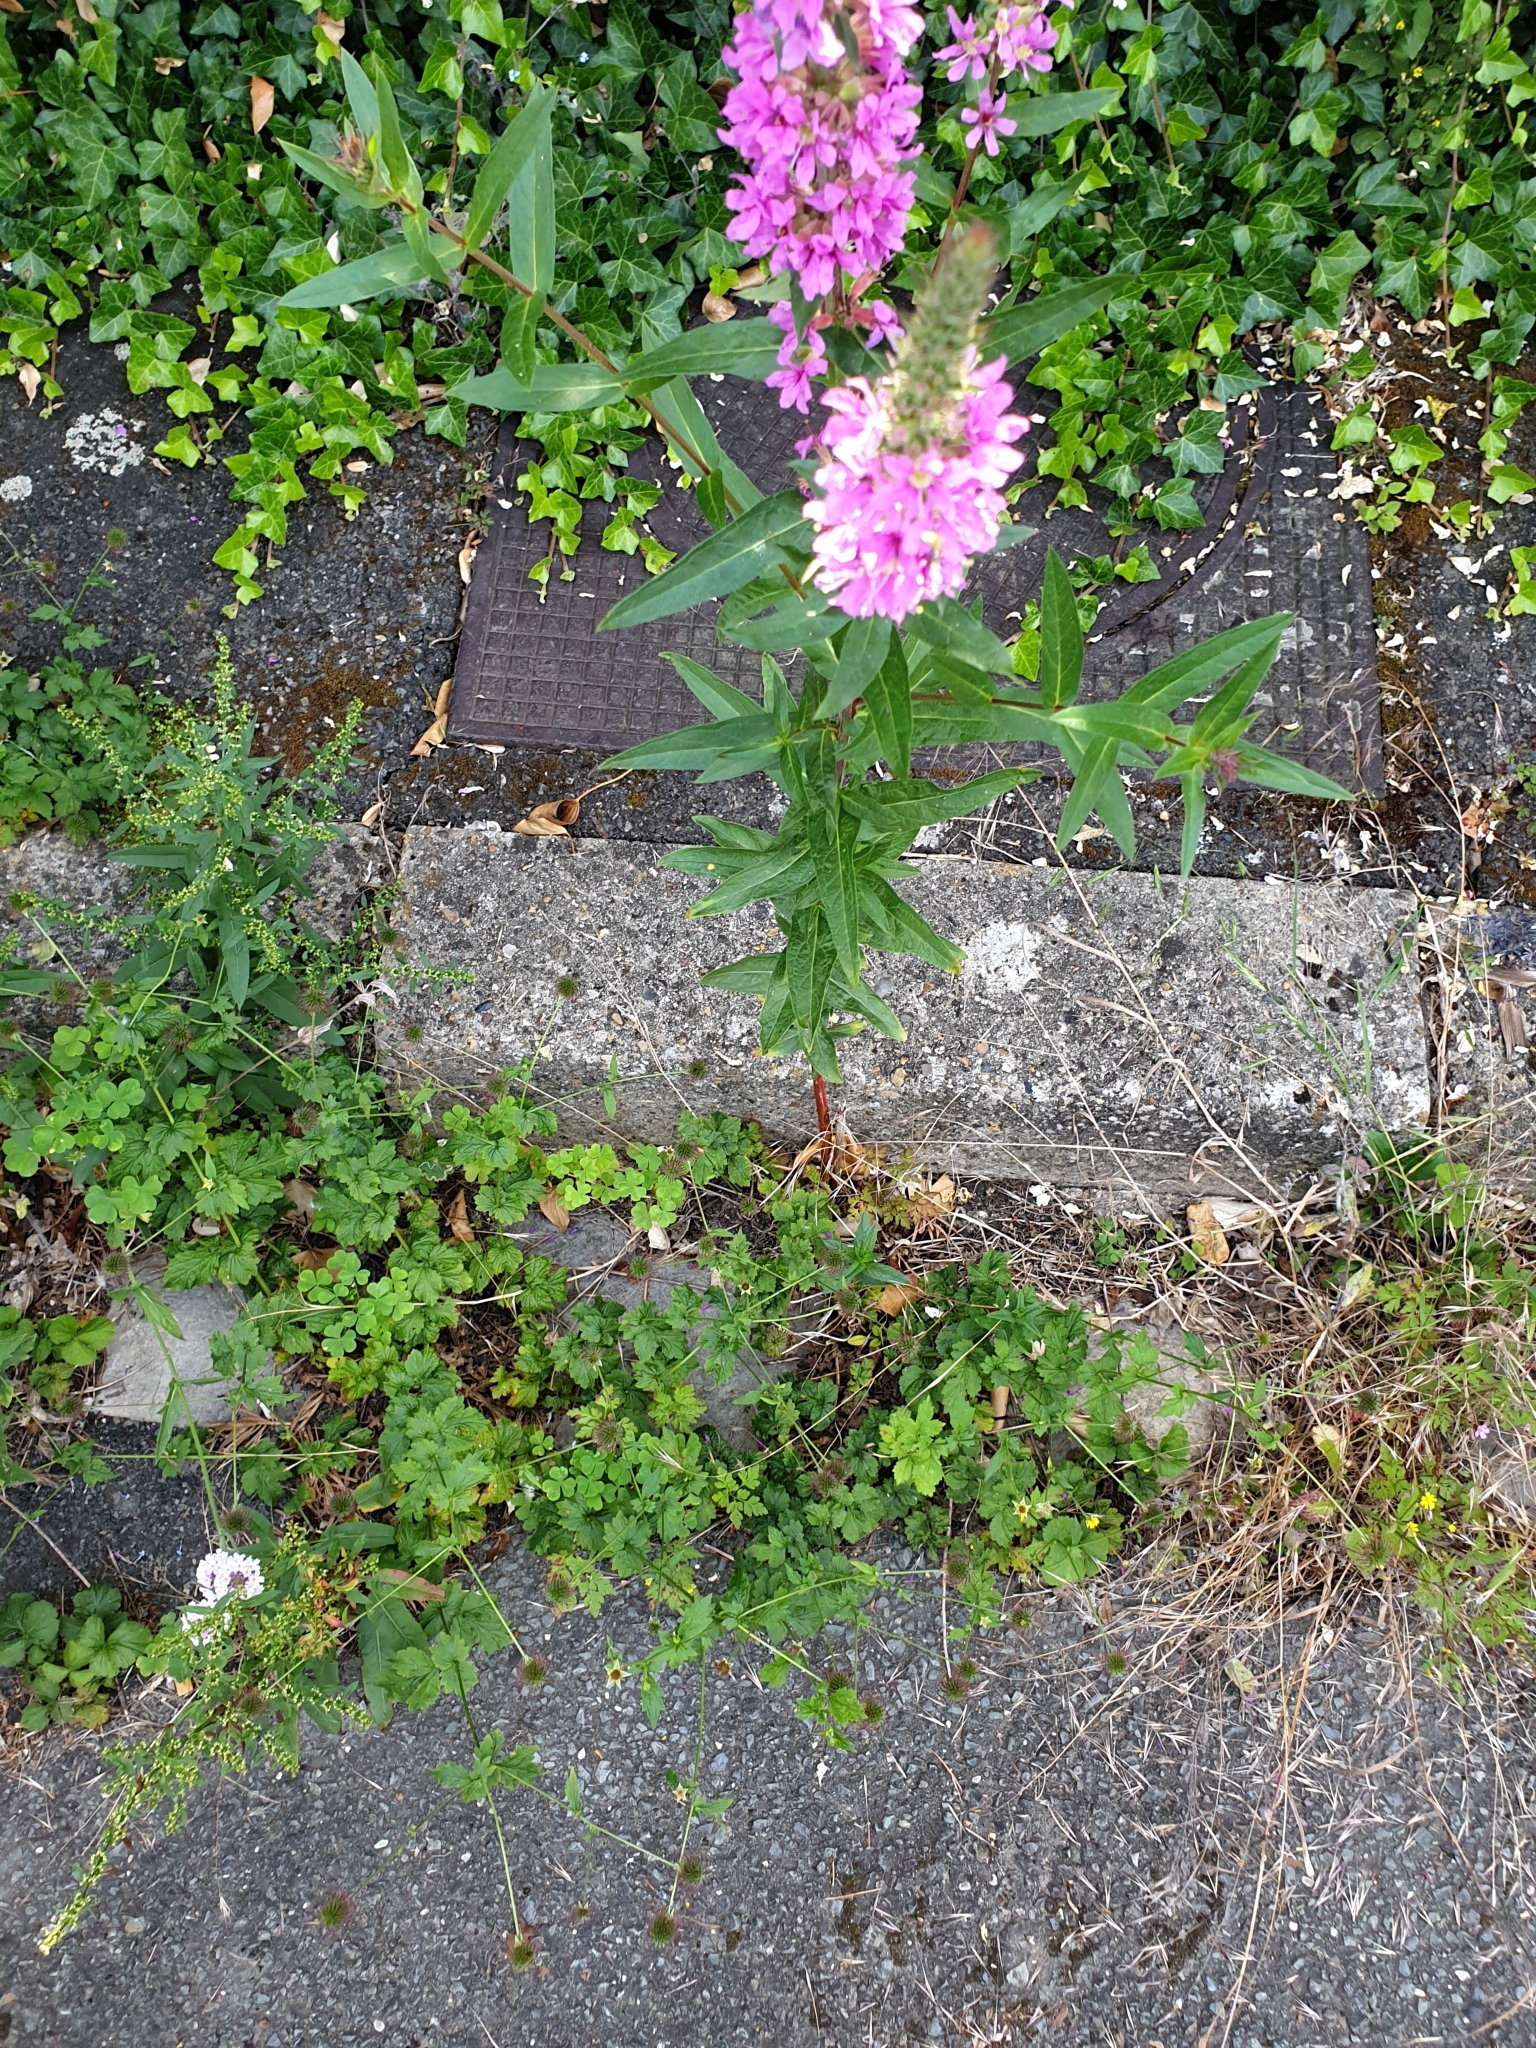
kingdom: Plantae
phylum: Tracheophyta
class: Magnoliopsida
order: Myrtales
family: Lythraceae
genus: Lythrum
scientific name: Lythrum salicaria
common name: Purple loosestrife
